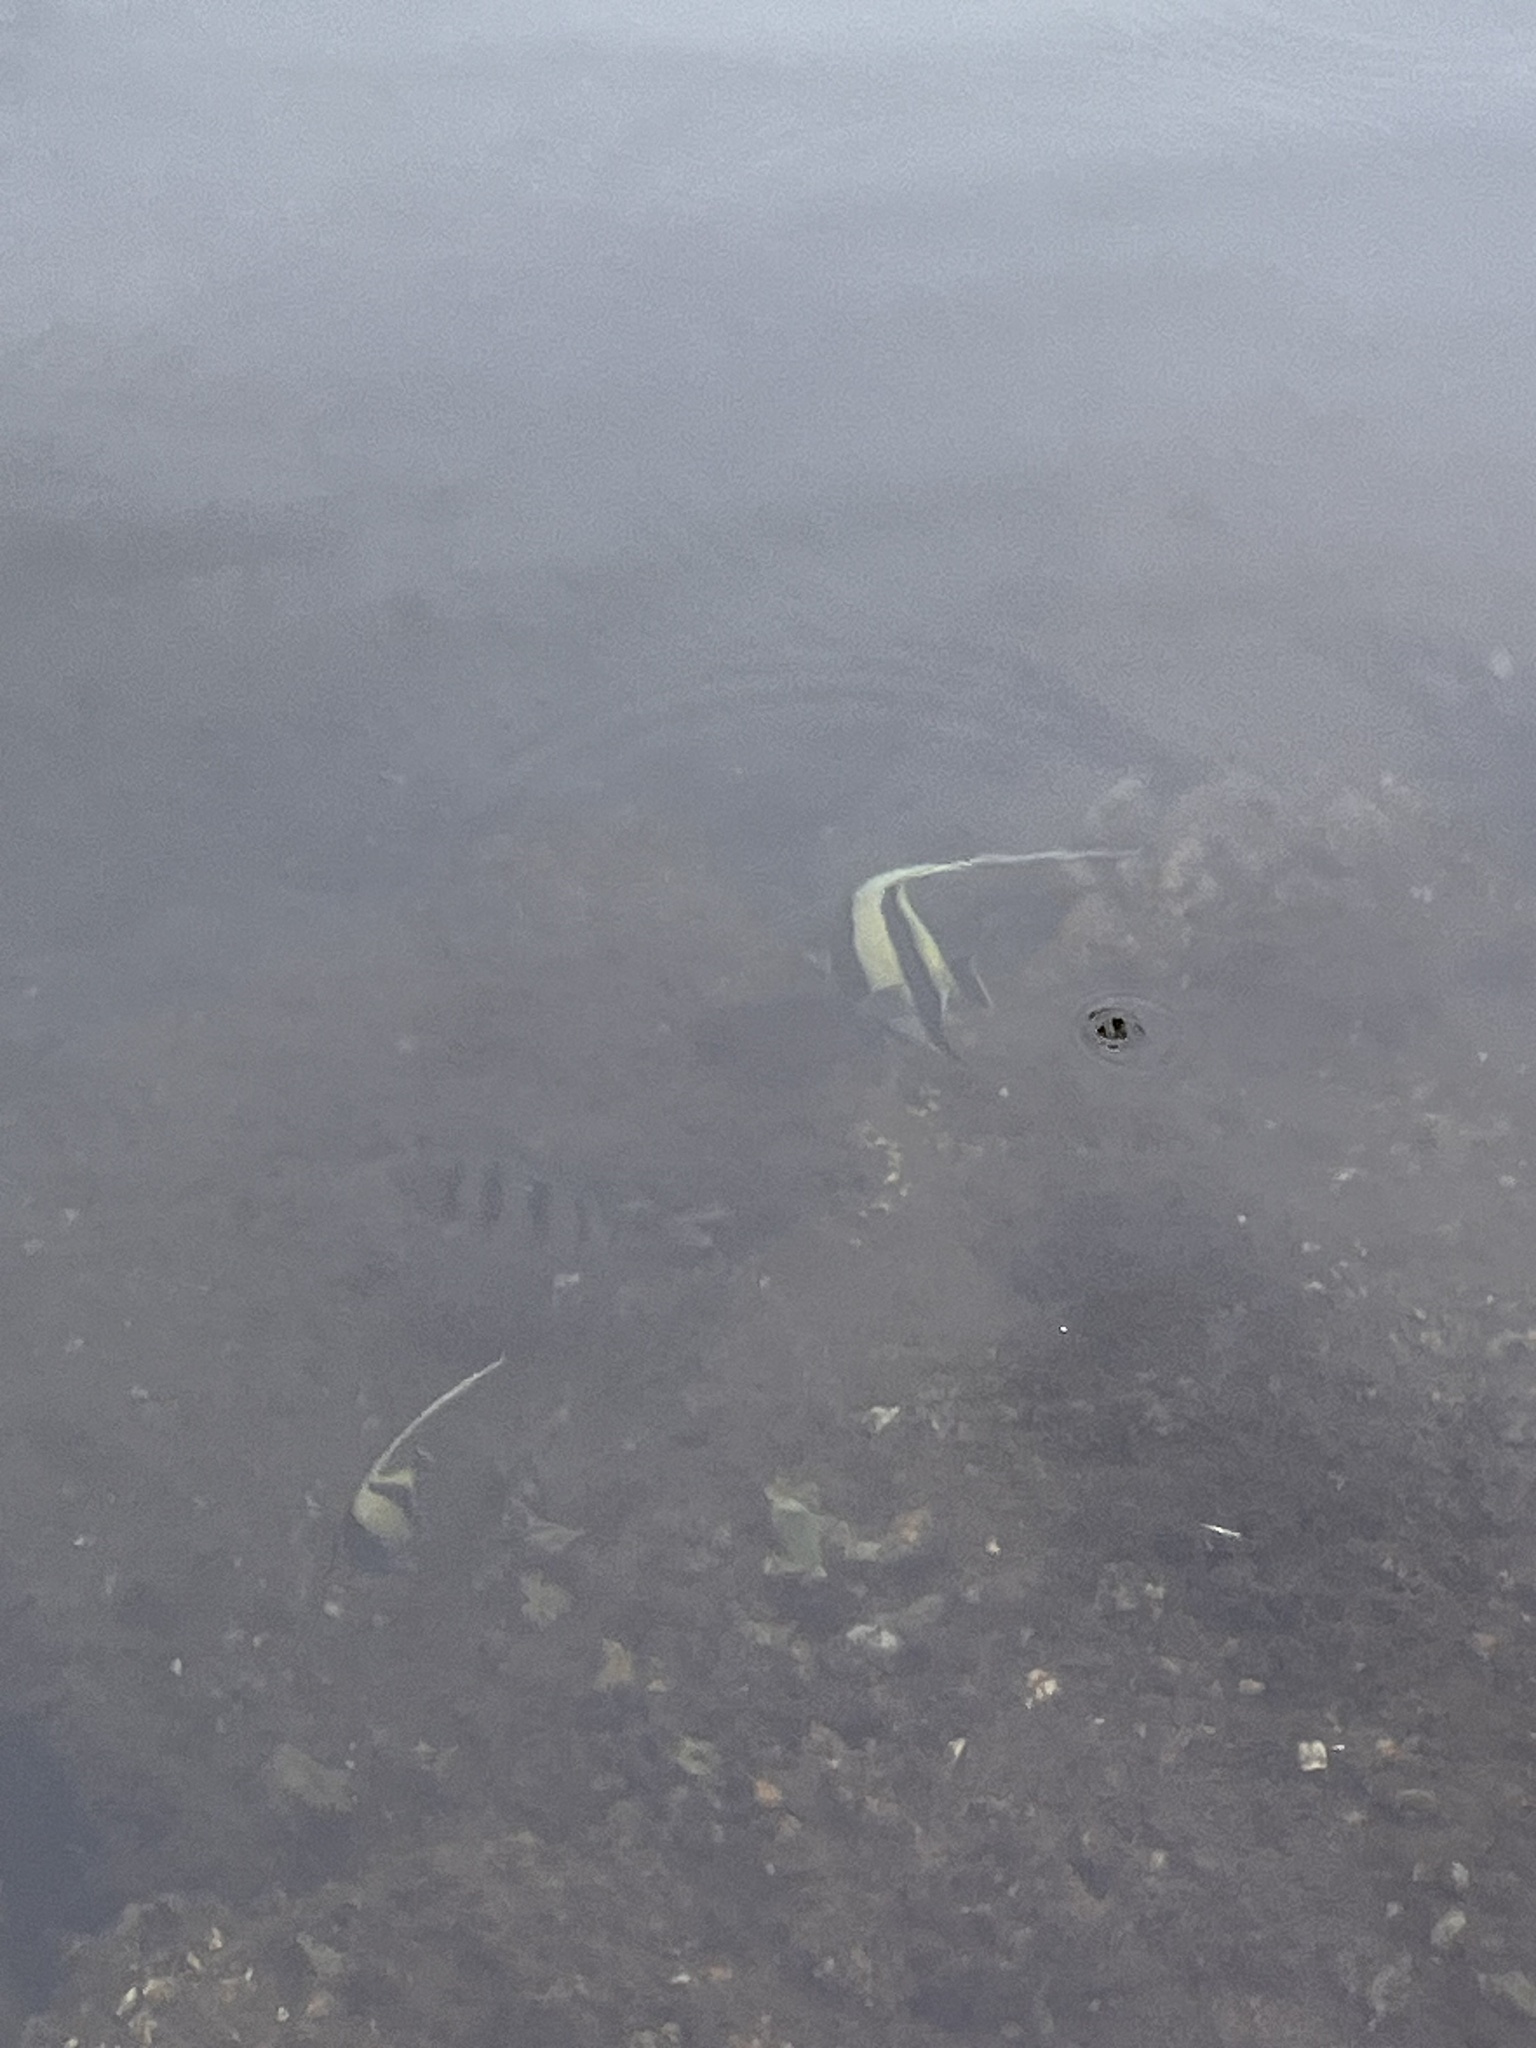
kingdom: Animalia
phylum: Chordata
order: Perciformes
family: Zanclidae
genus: Zanclus
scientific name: Zanclus cornutus
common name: Moorish idol
